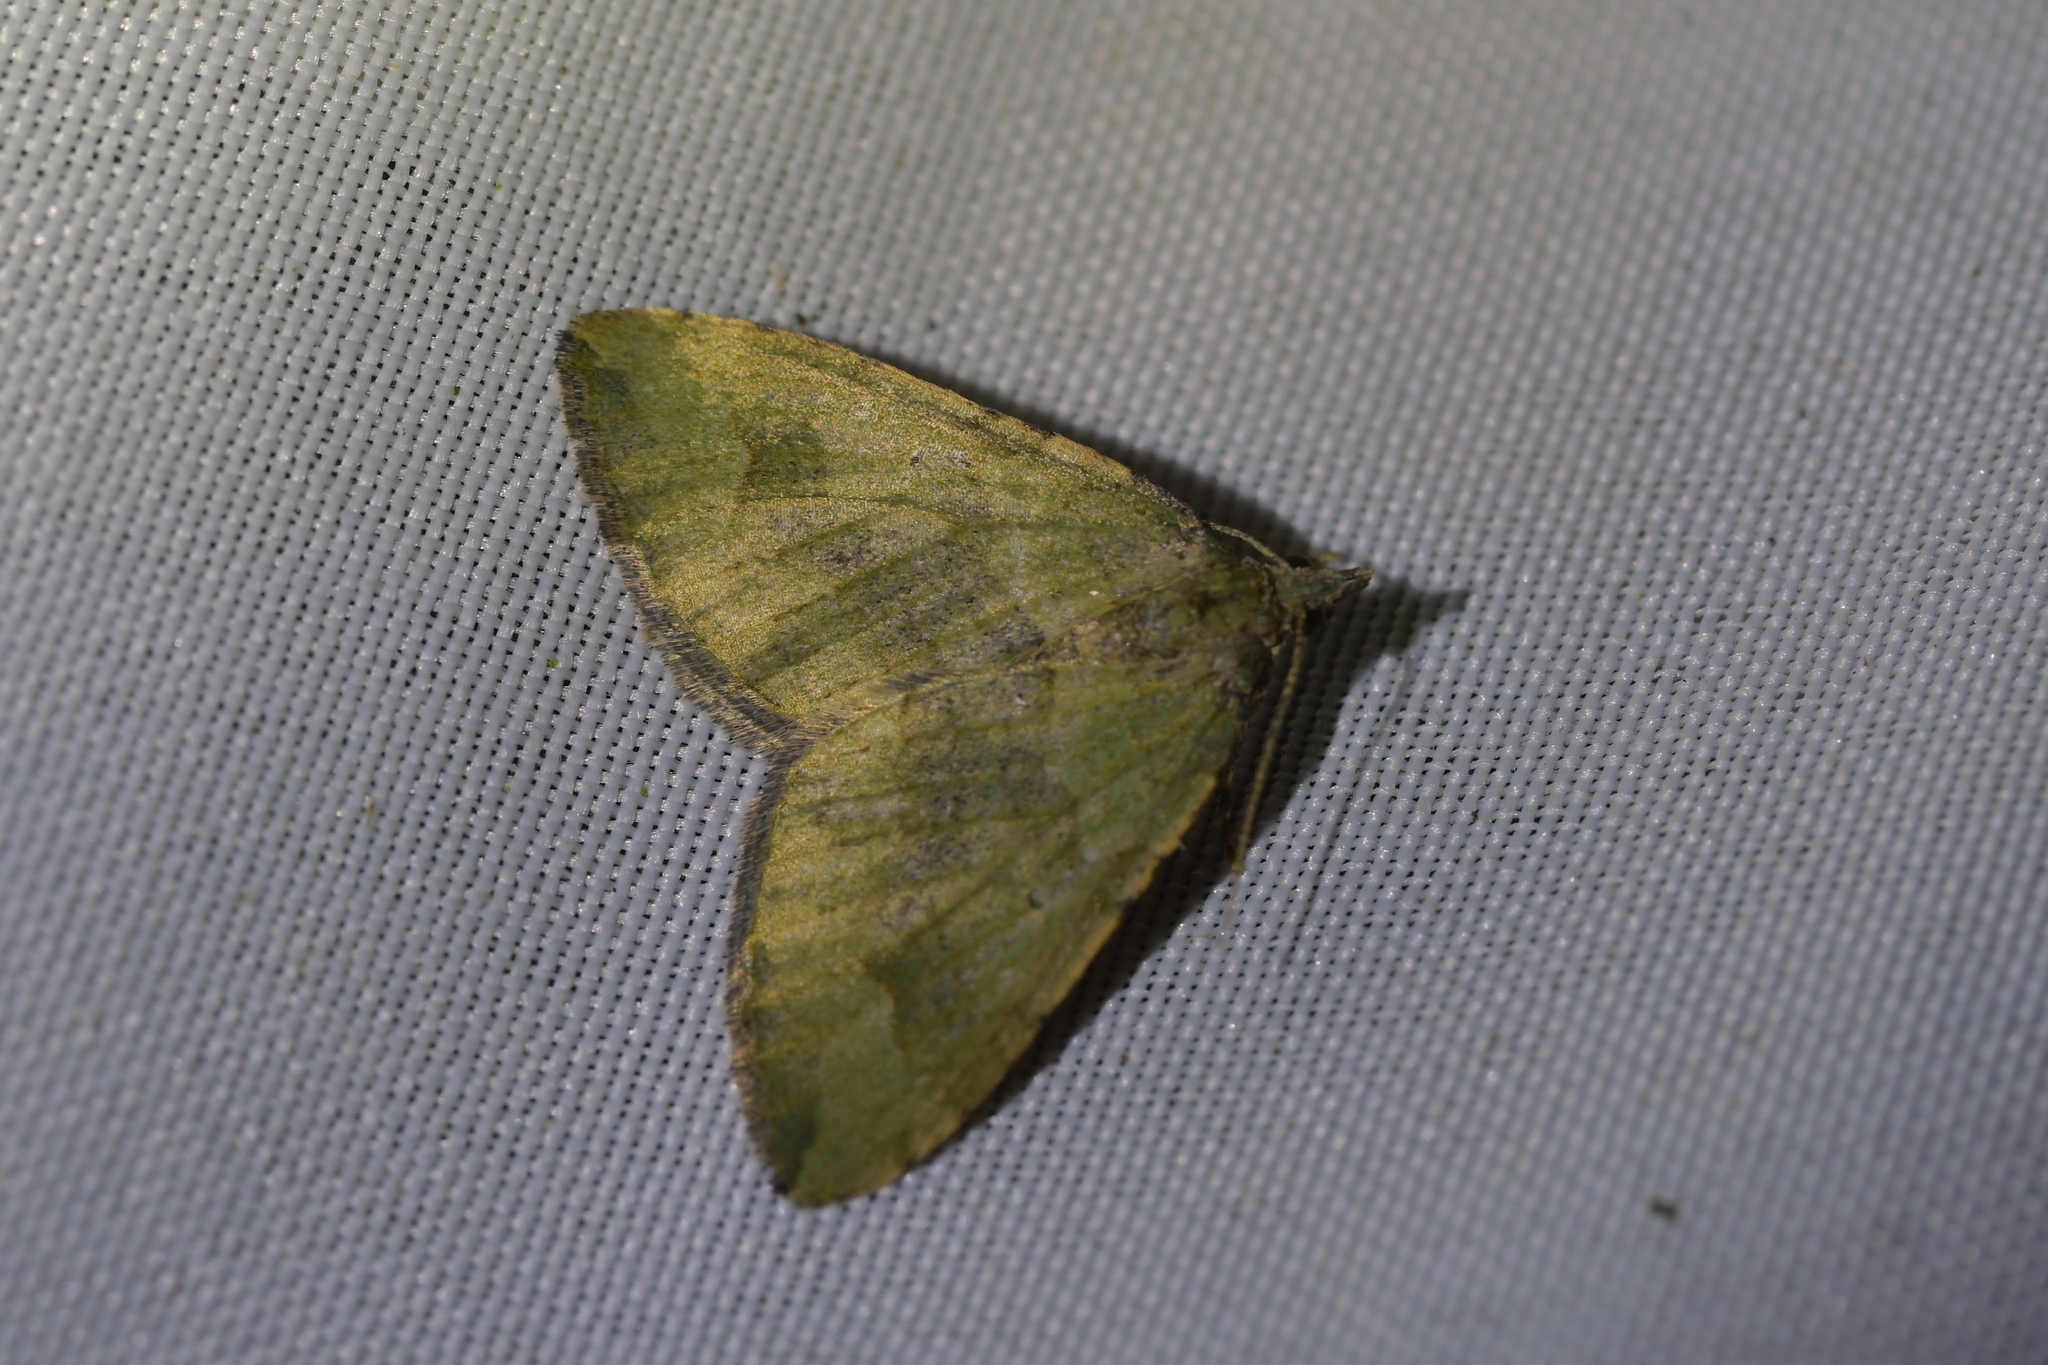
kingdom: Animalia
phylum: Arthropoda
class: Insecta
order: Lepidoptera
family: Geometridae
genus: Epyaxa
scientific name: Epyaxa rosearia
